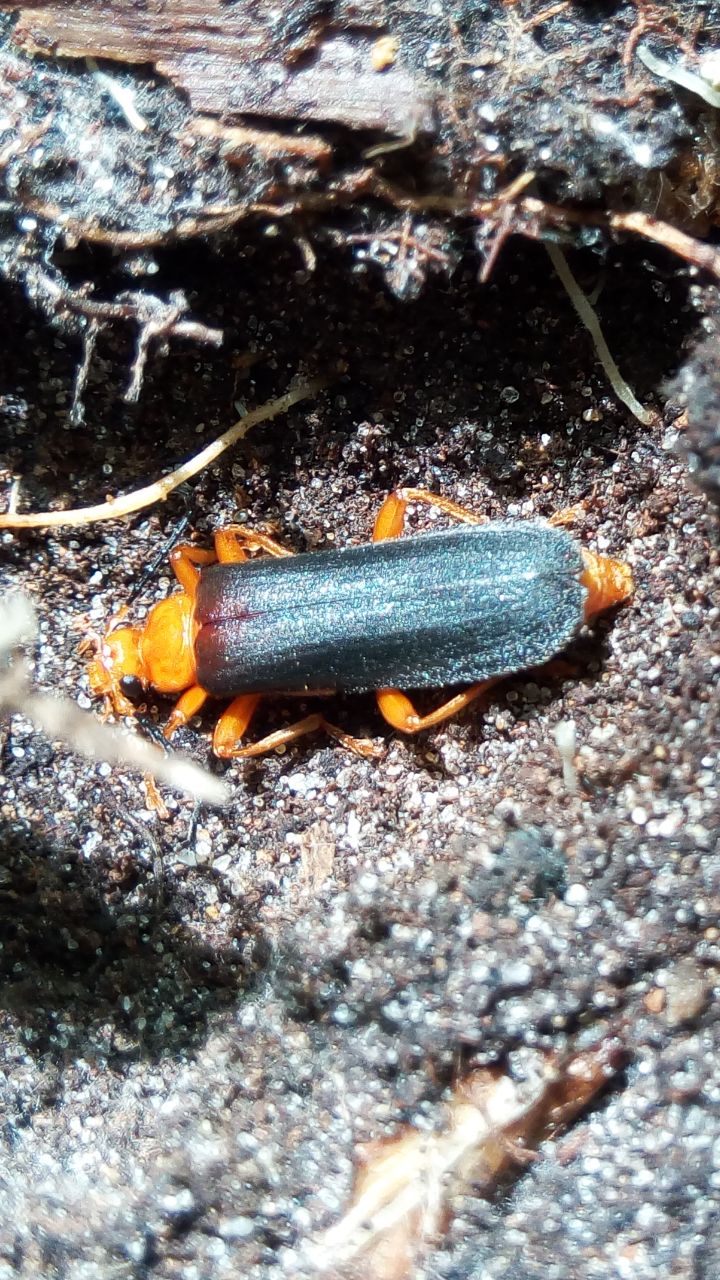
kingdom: Animalia
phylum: Arthropoda
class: Insecta
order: Coleoptera
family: Pyrochroidae
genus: Neopyrochroa
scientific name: Neopyrochroa flabellata
